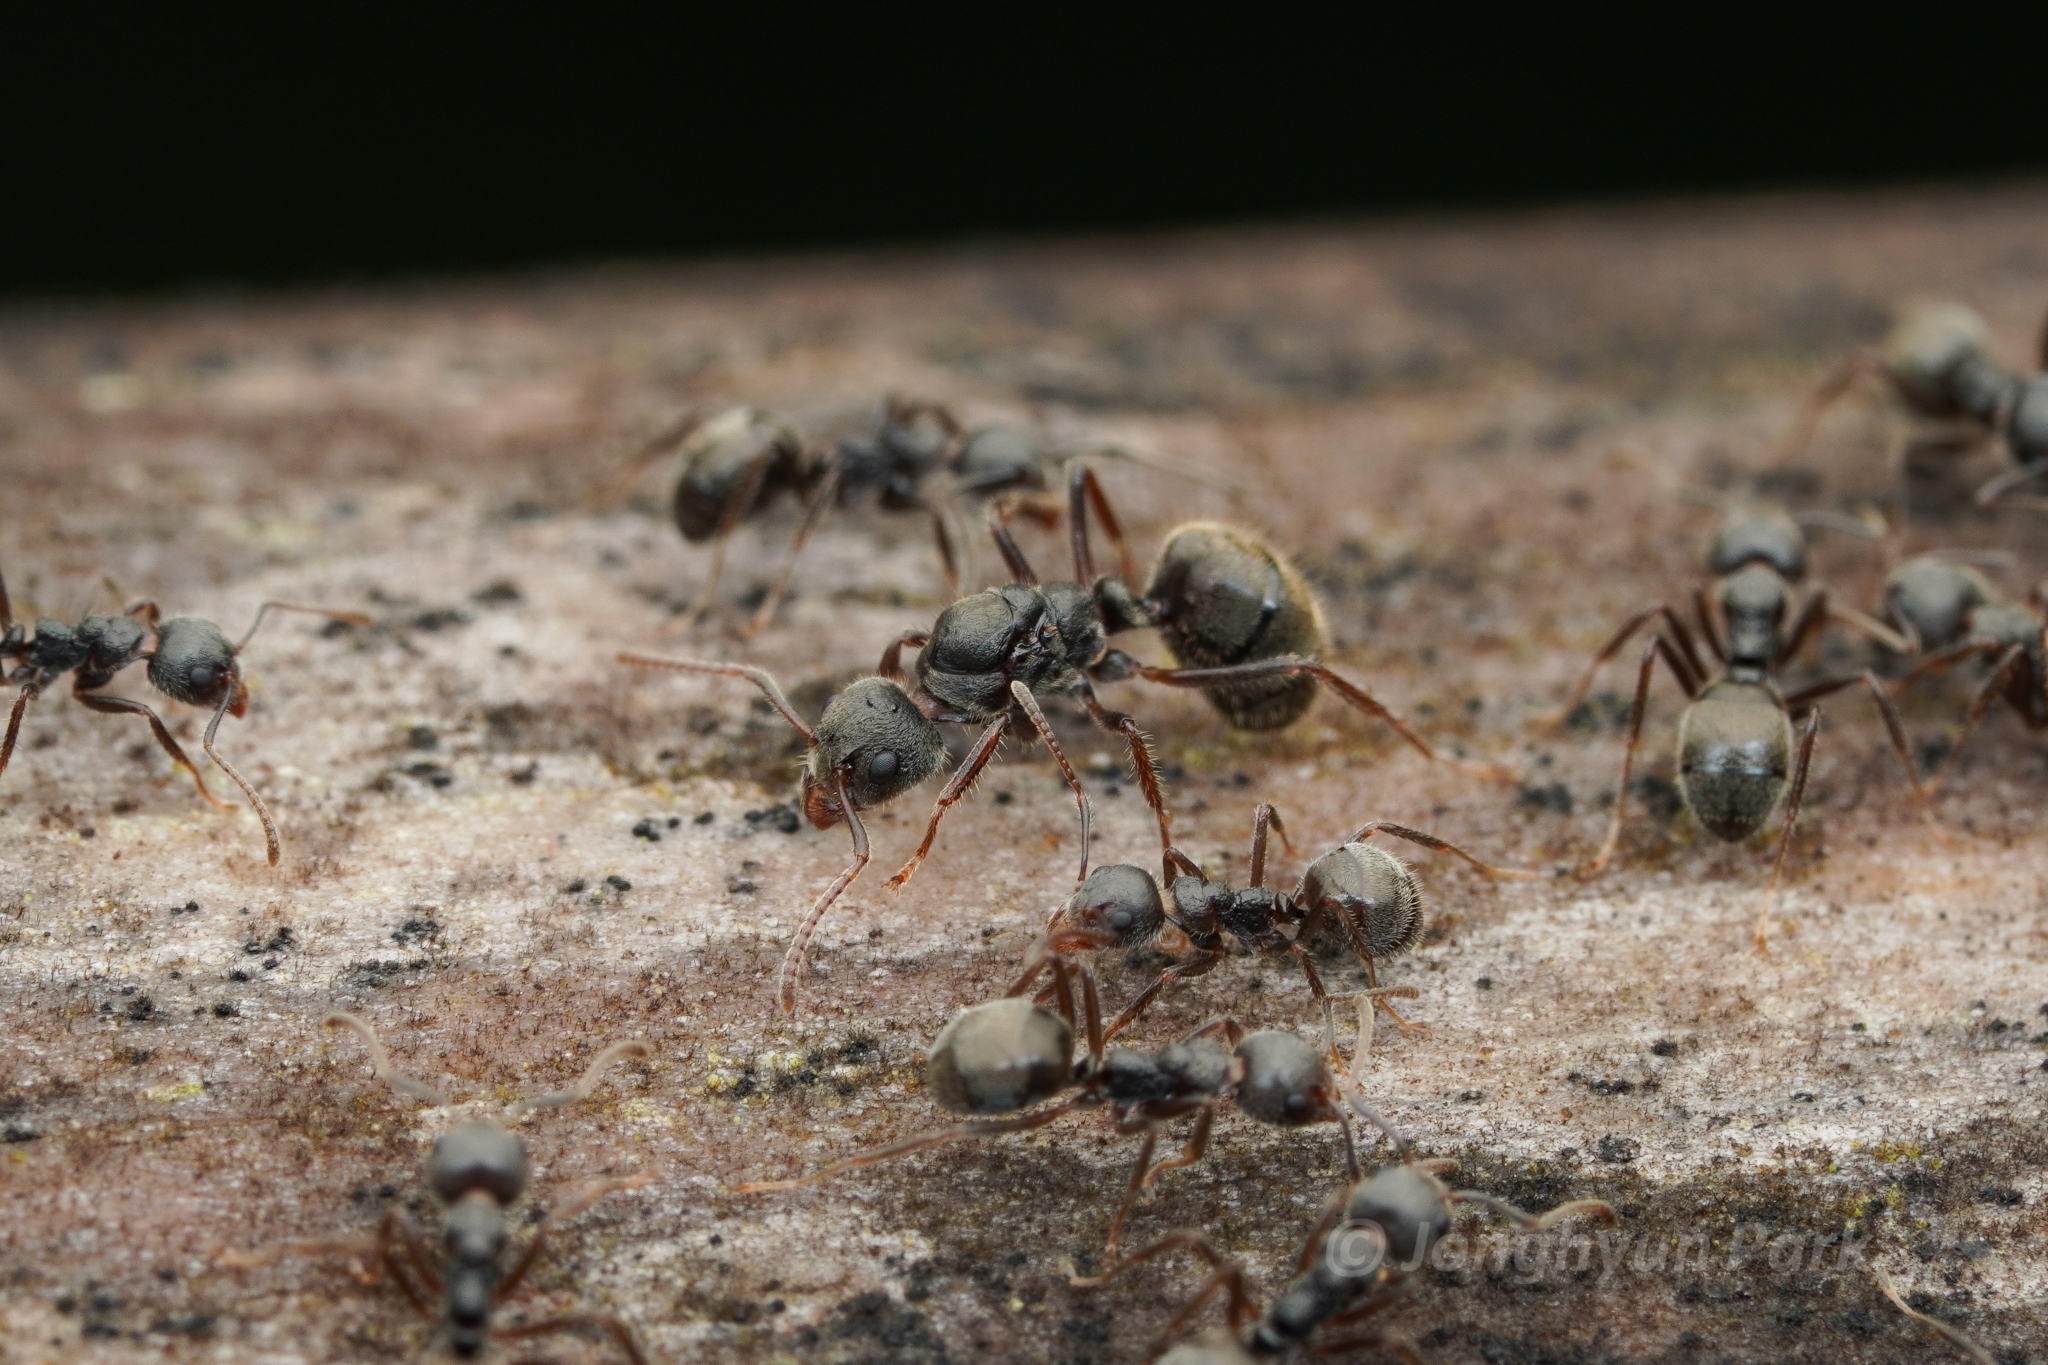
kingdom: Animalia
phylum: Arthropoda
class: Insecta
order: Hymenoptera
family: Formicidae
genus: Dolichoderus
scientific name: Dolichoderus thoracicus
